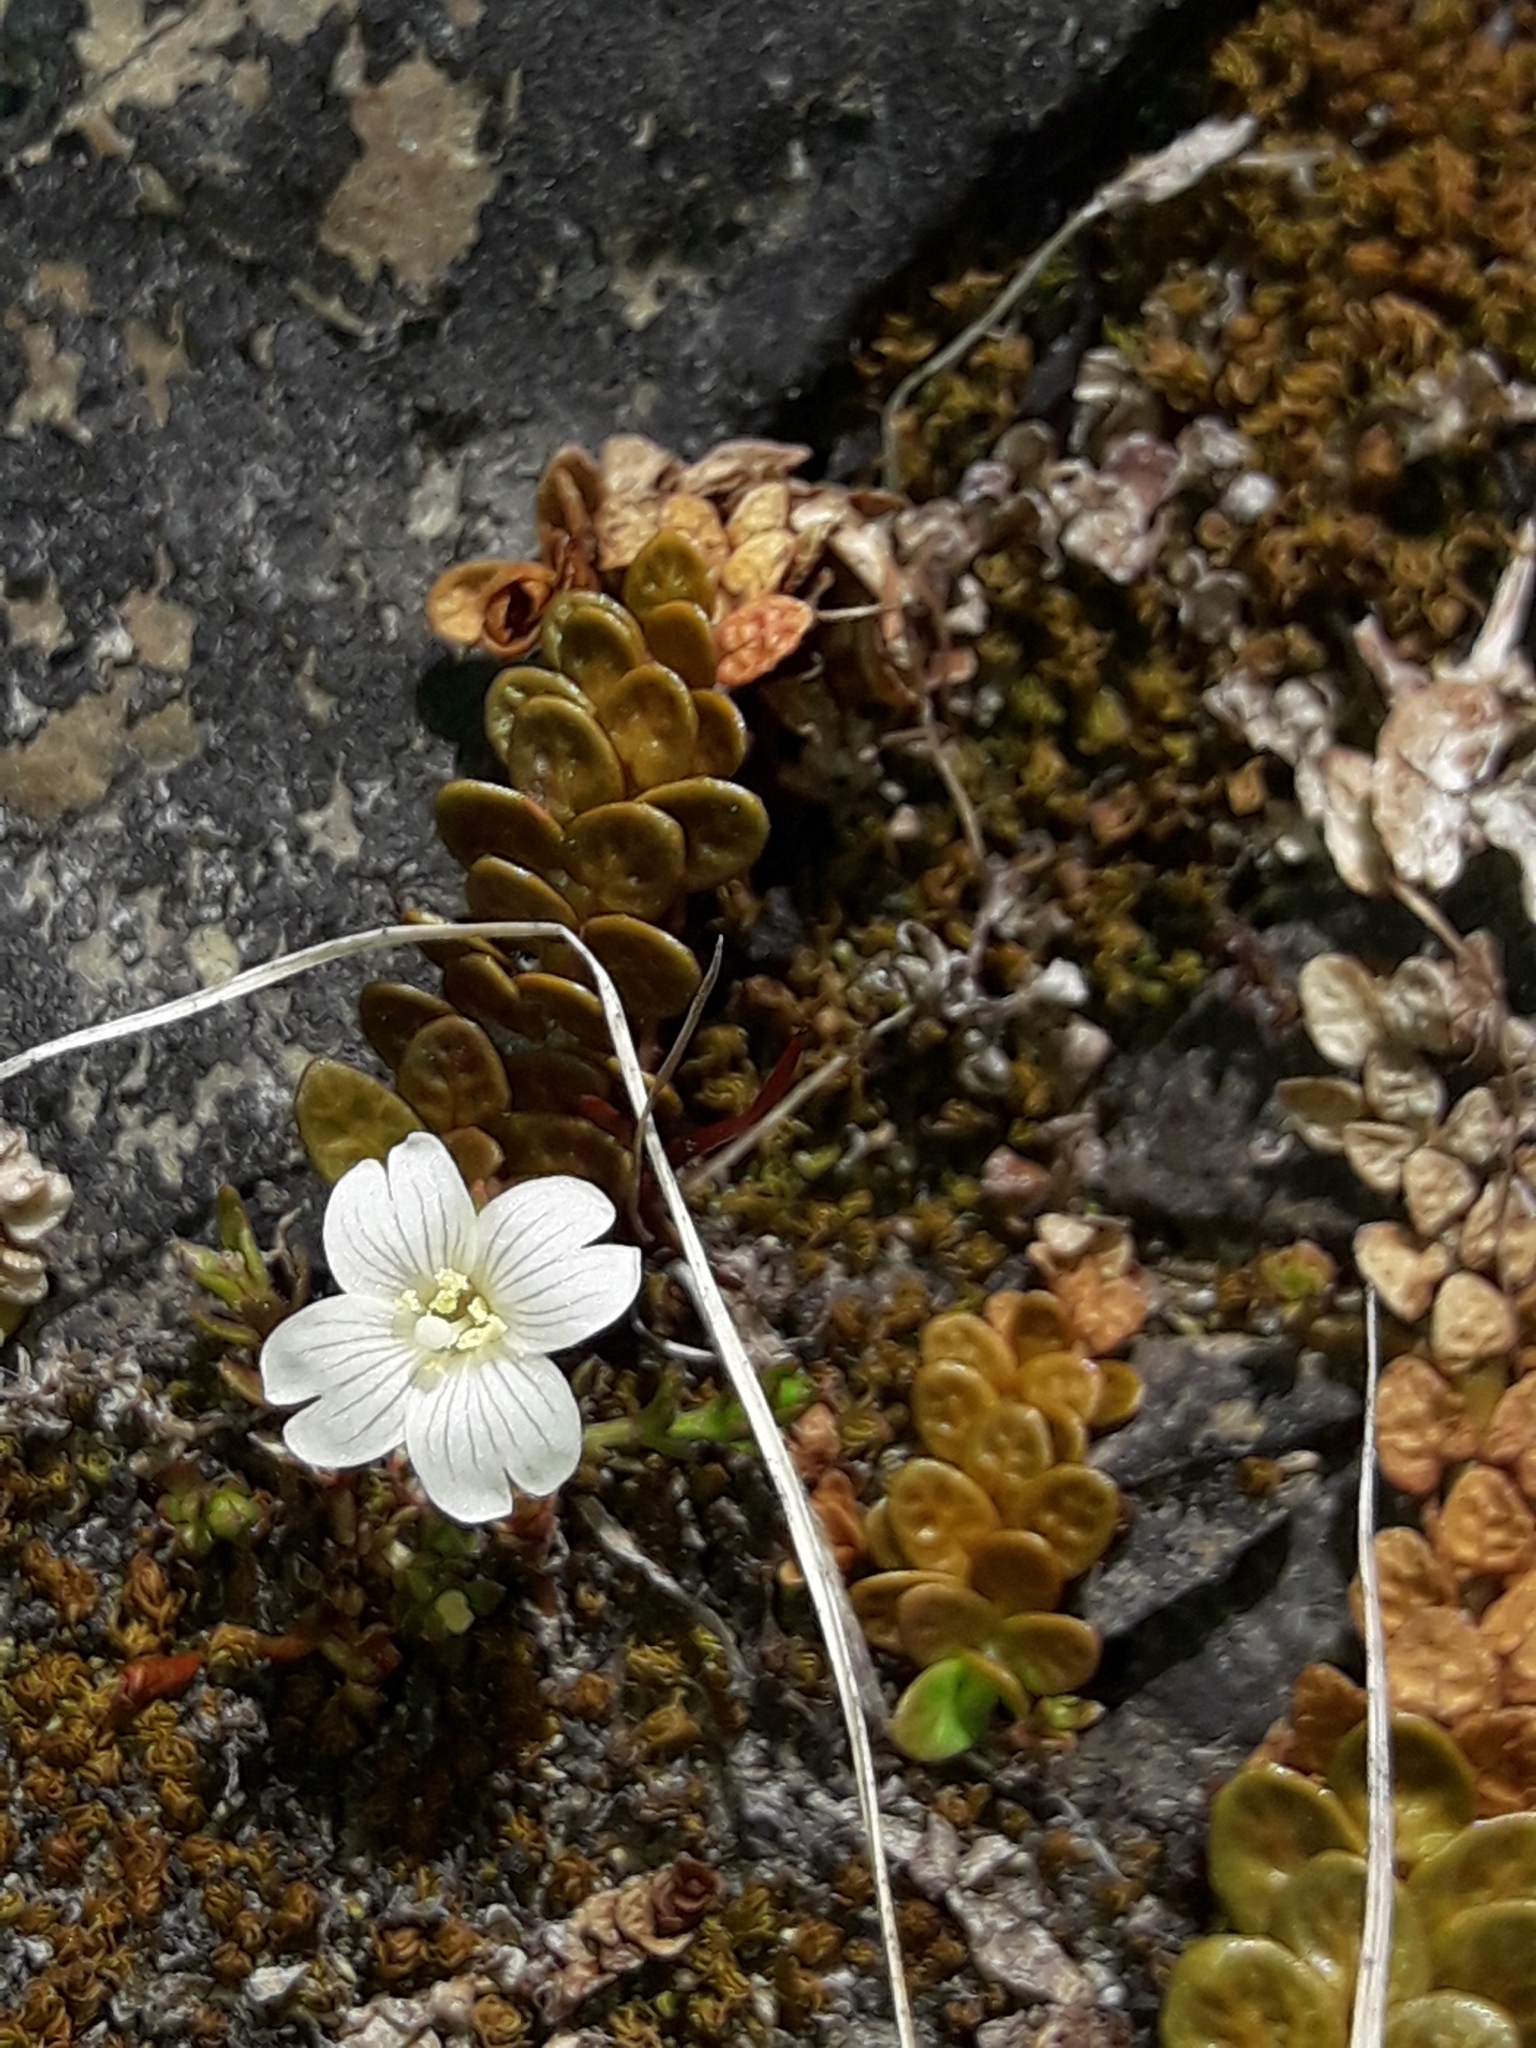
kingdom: Plantae
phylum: Tracheophyta
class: Magnoliopsida
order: Myrtales
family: Onagraceae
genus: Epilobium
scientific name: Epilobium komarovianum
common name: Bronzy willowherb
